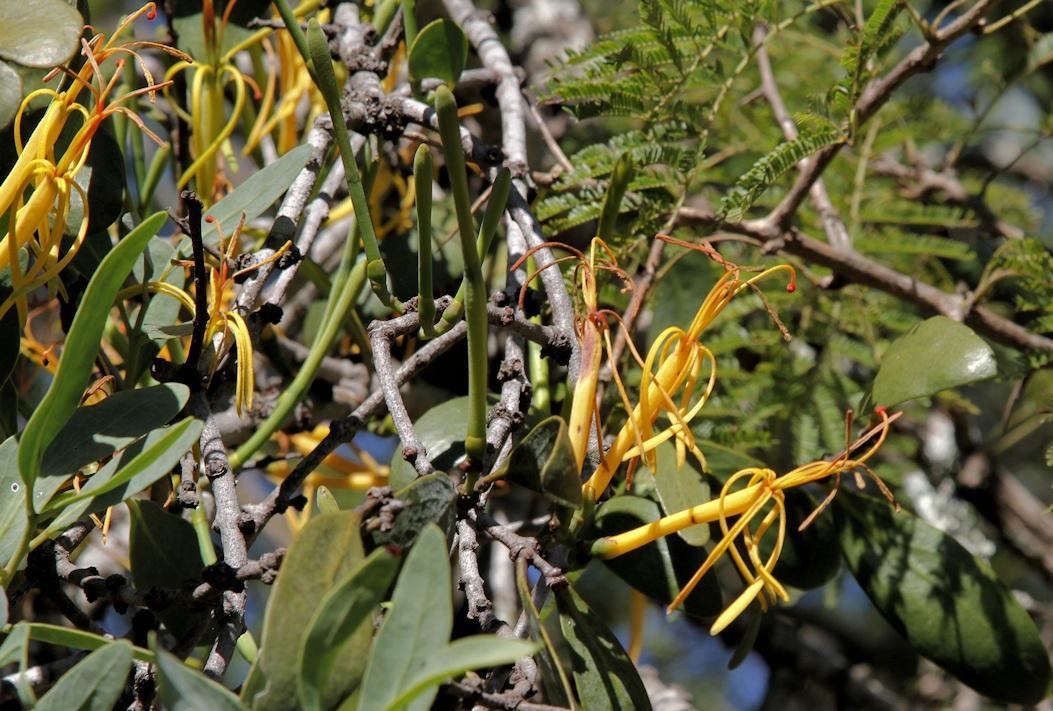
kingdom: Plantae
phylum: Tracheophyta
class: Magnoliopsida
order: Santalales
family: Loranthaceae
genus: Pedistylis
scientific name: Pedistylis galpinii
